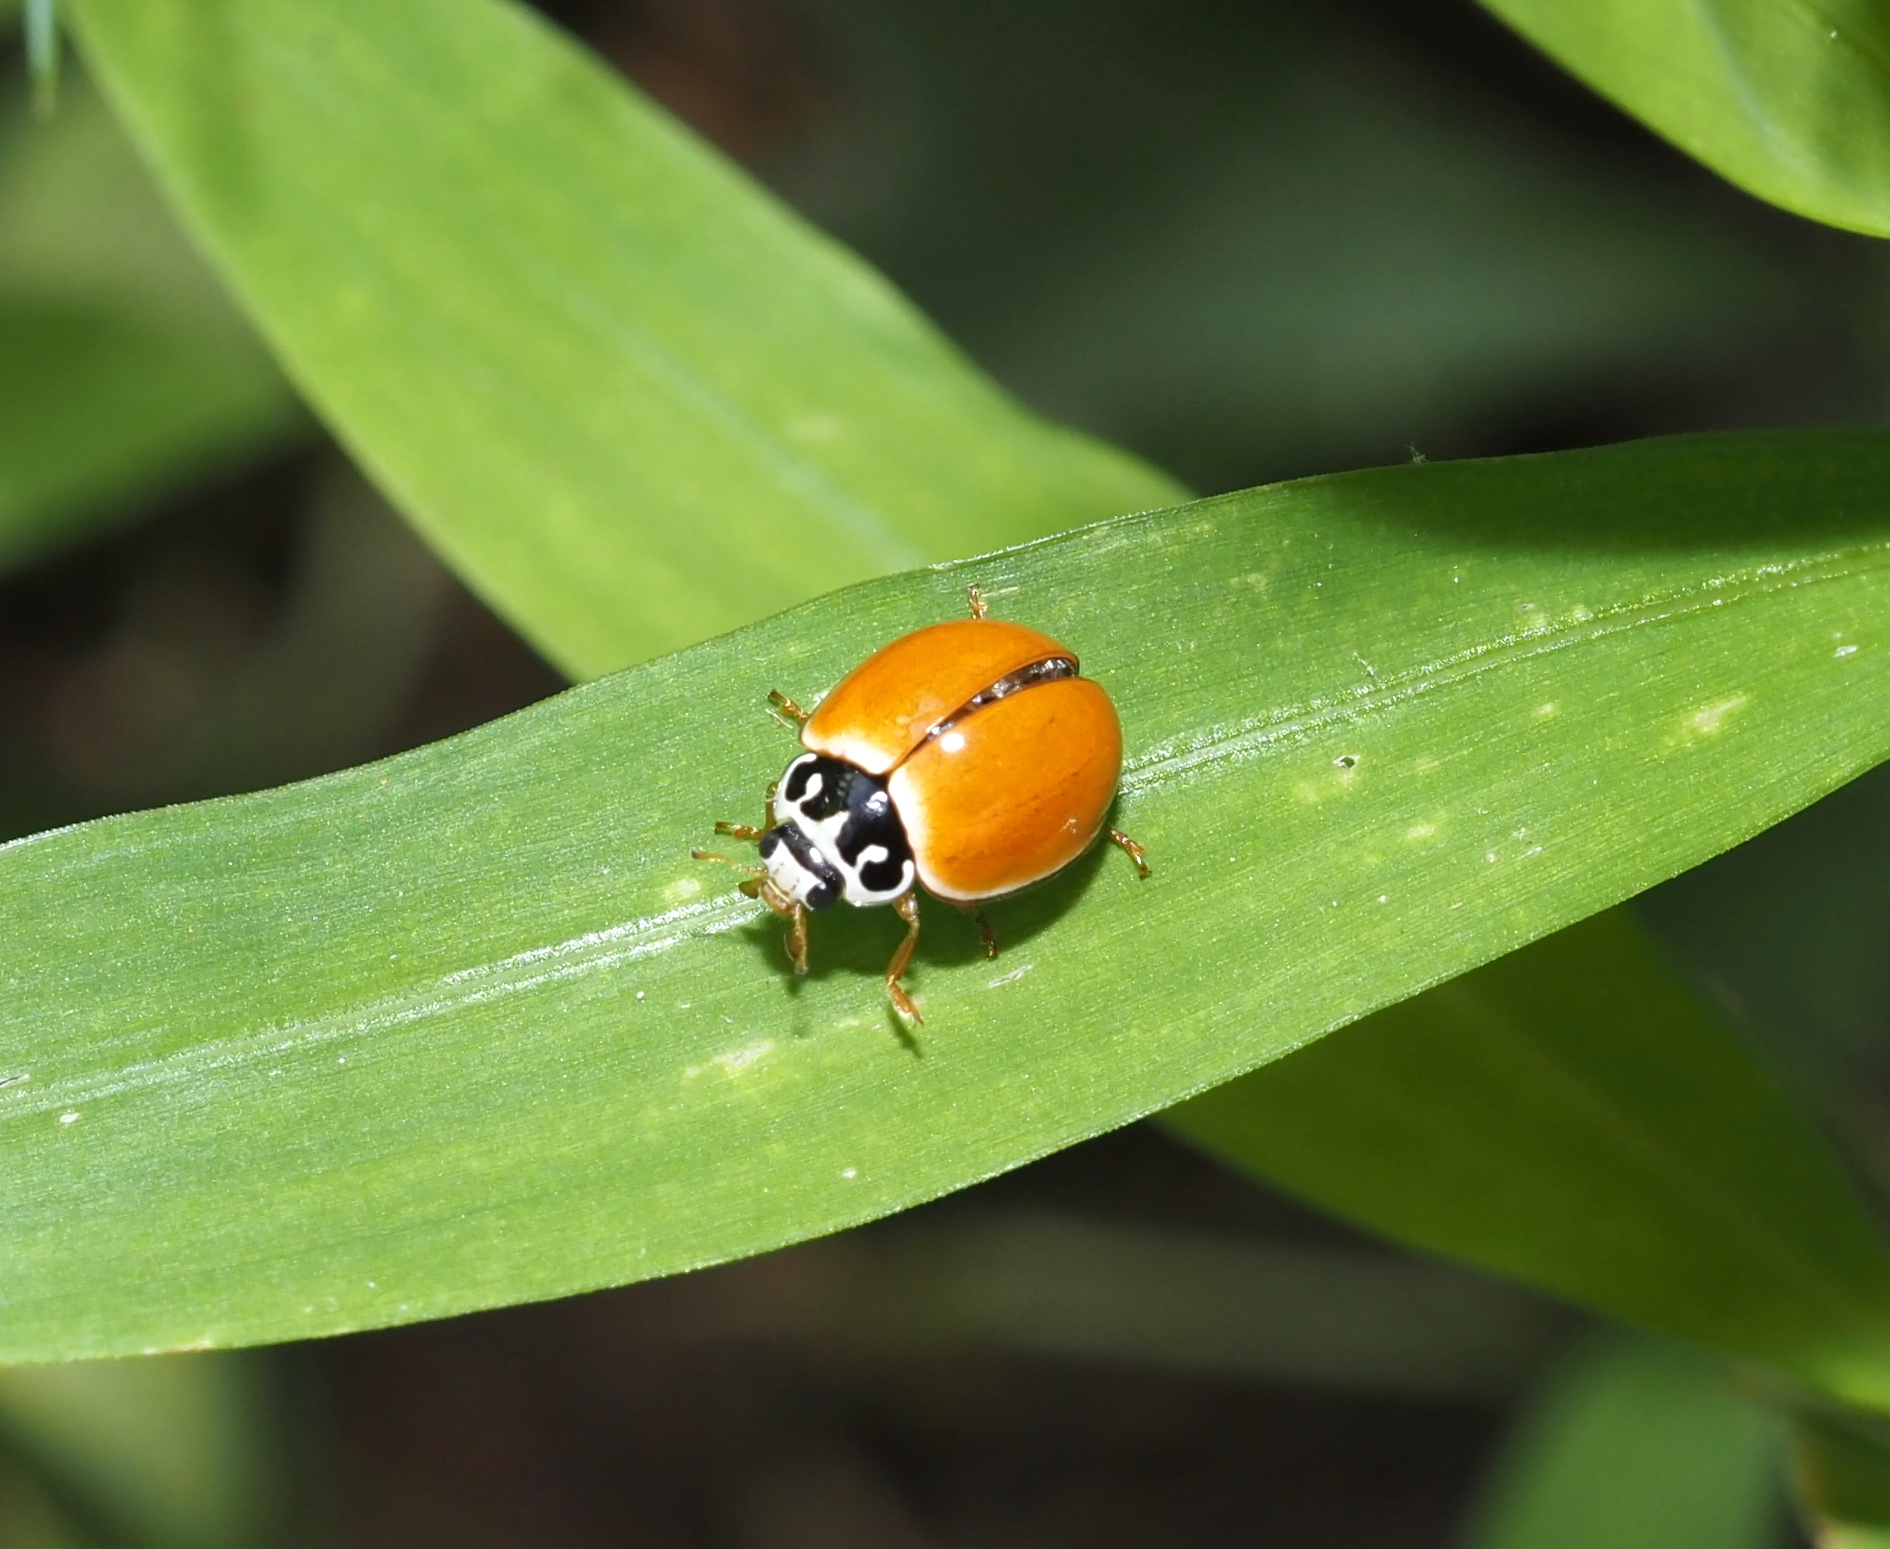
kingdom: Animalia
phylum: Arthropoda
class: Insecta
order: Coleoptera
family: Coccinellidae
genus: Cycloneda
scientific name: Cycloneda munda
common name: Polished lady beetle
